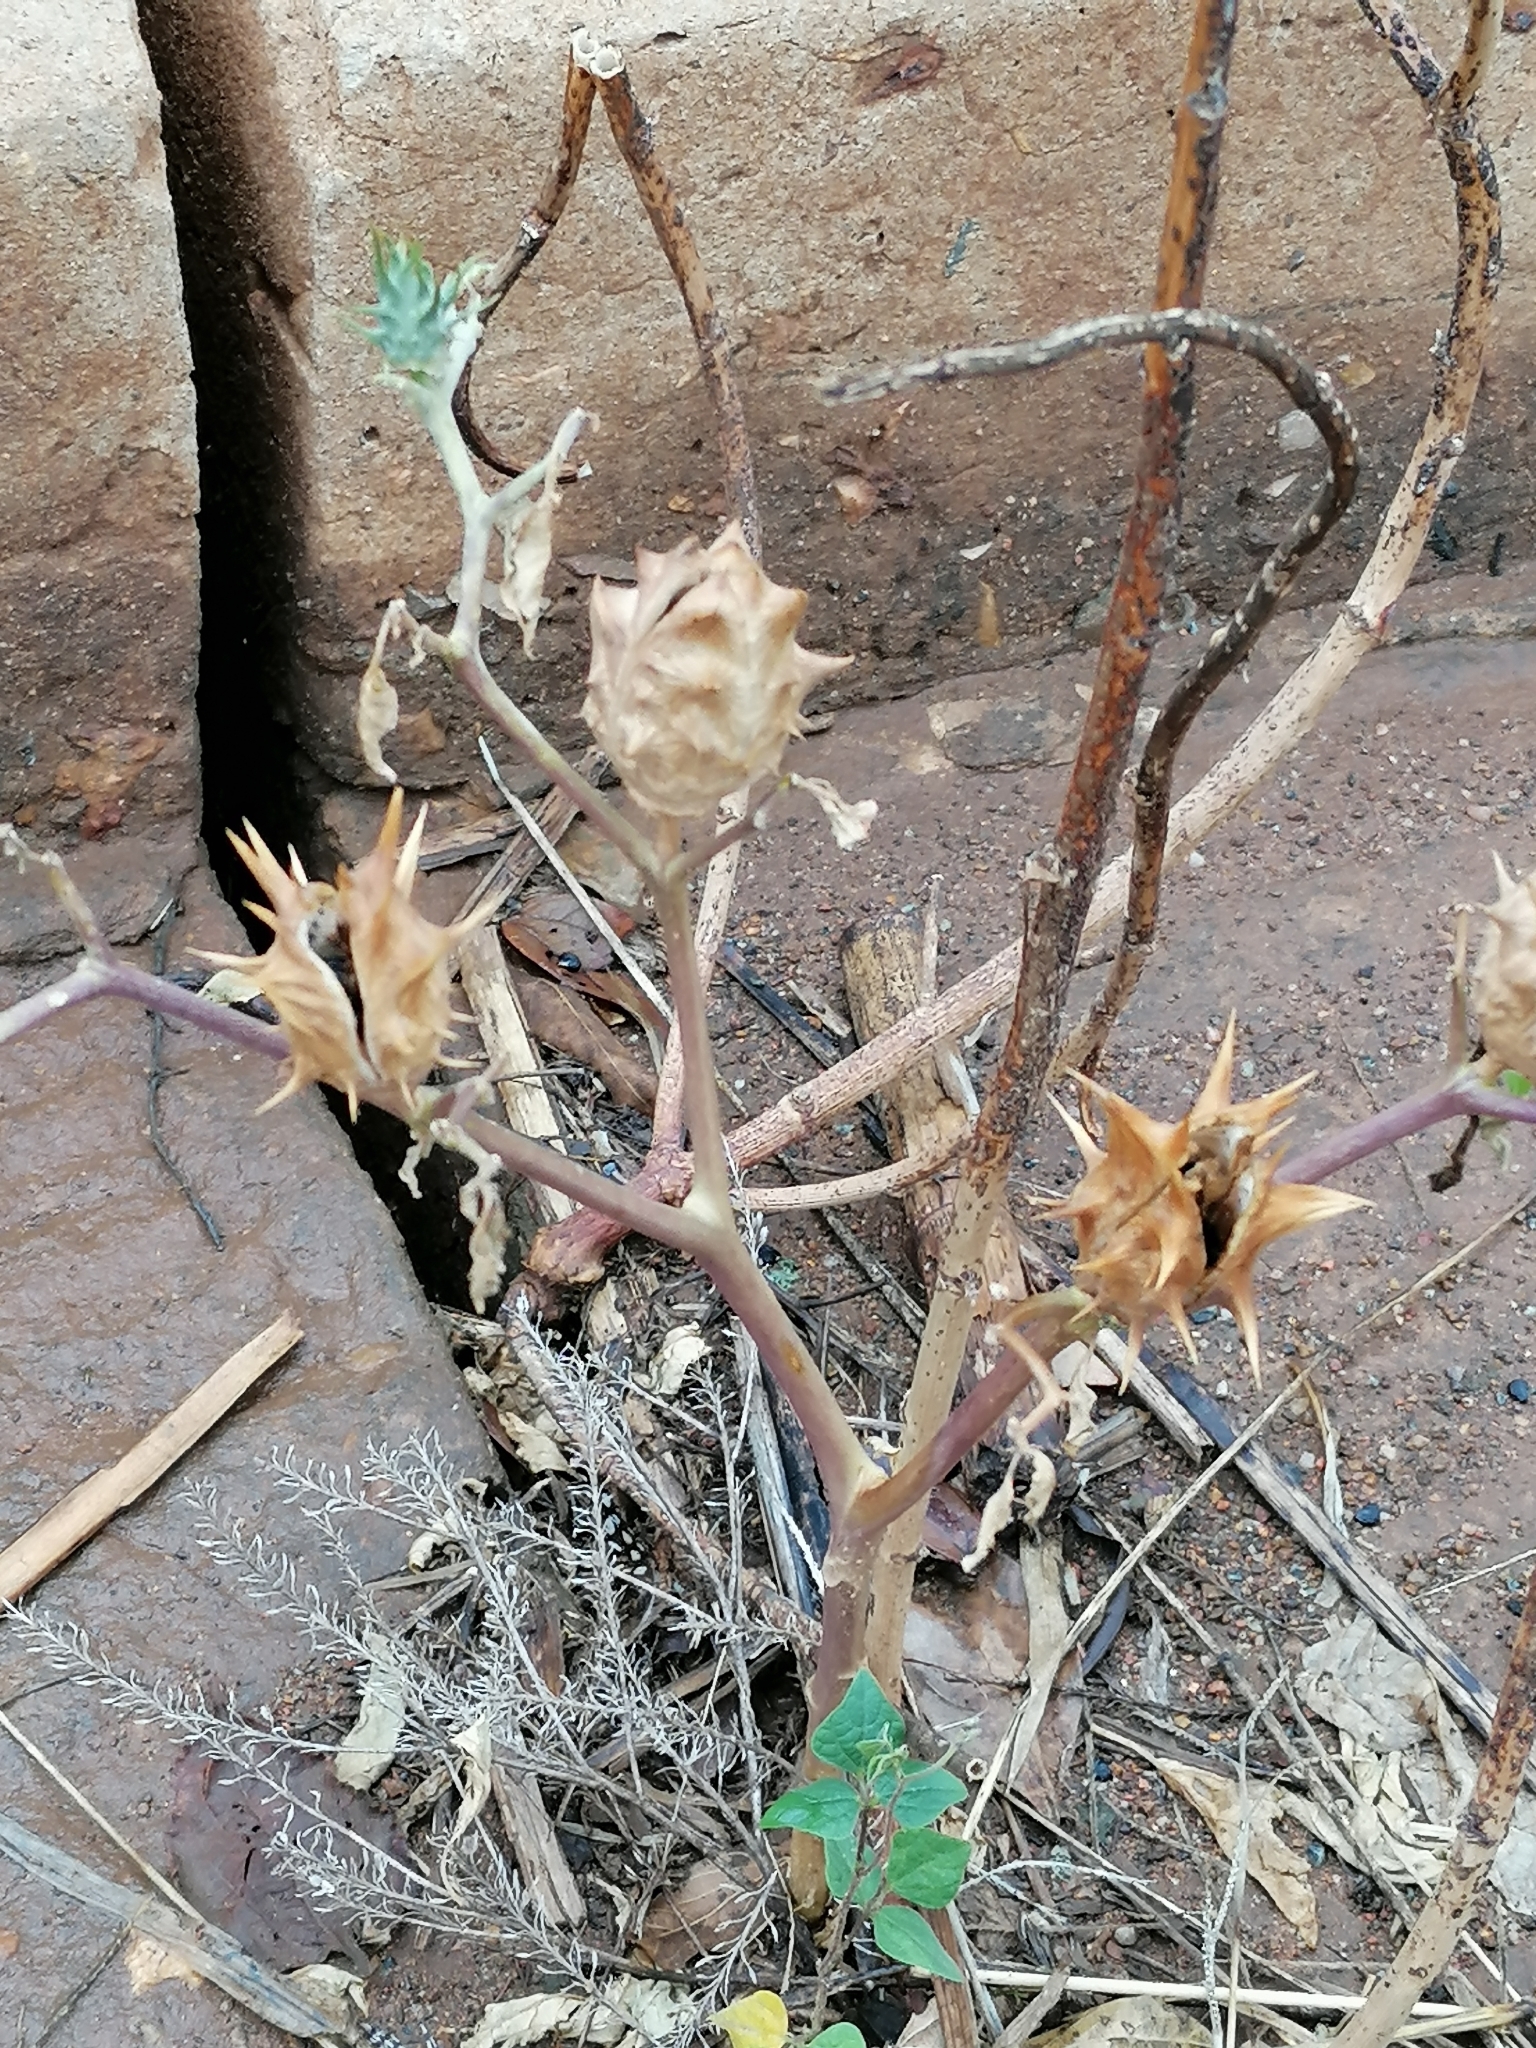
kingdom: Plantae
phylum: Tracheophyta
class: Magnoliopsida
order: Solanales
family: Solanaceae
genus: Datura
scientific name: Datura ferox
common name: Angel's-trumpets
